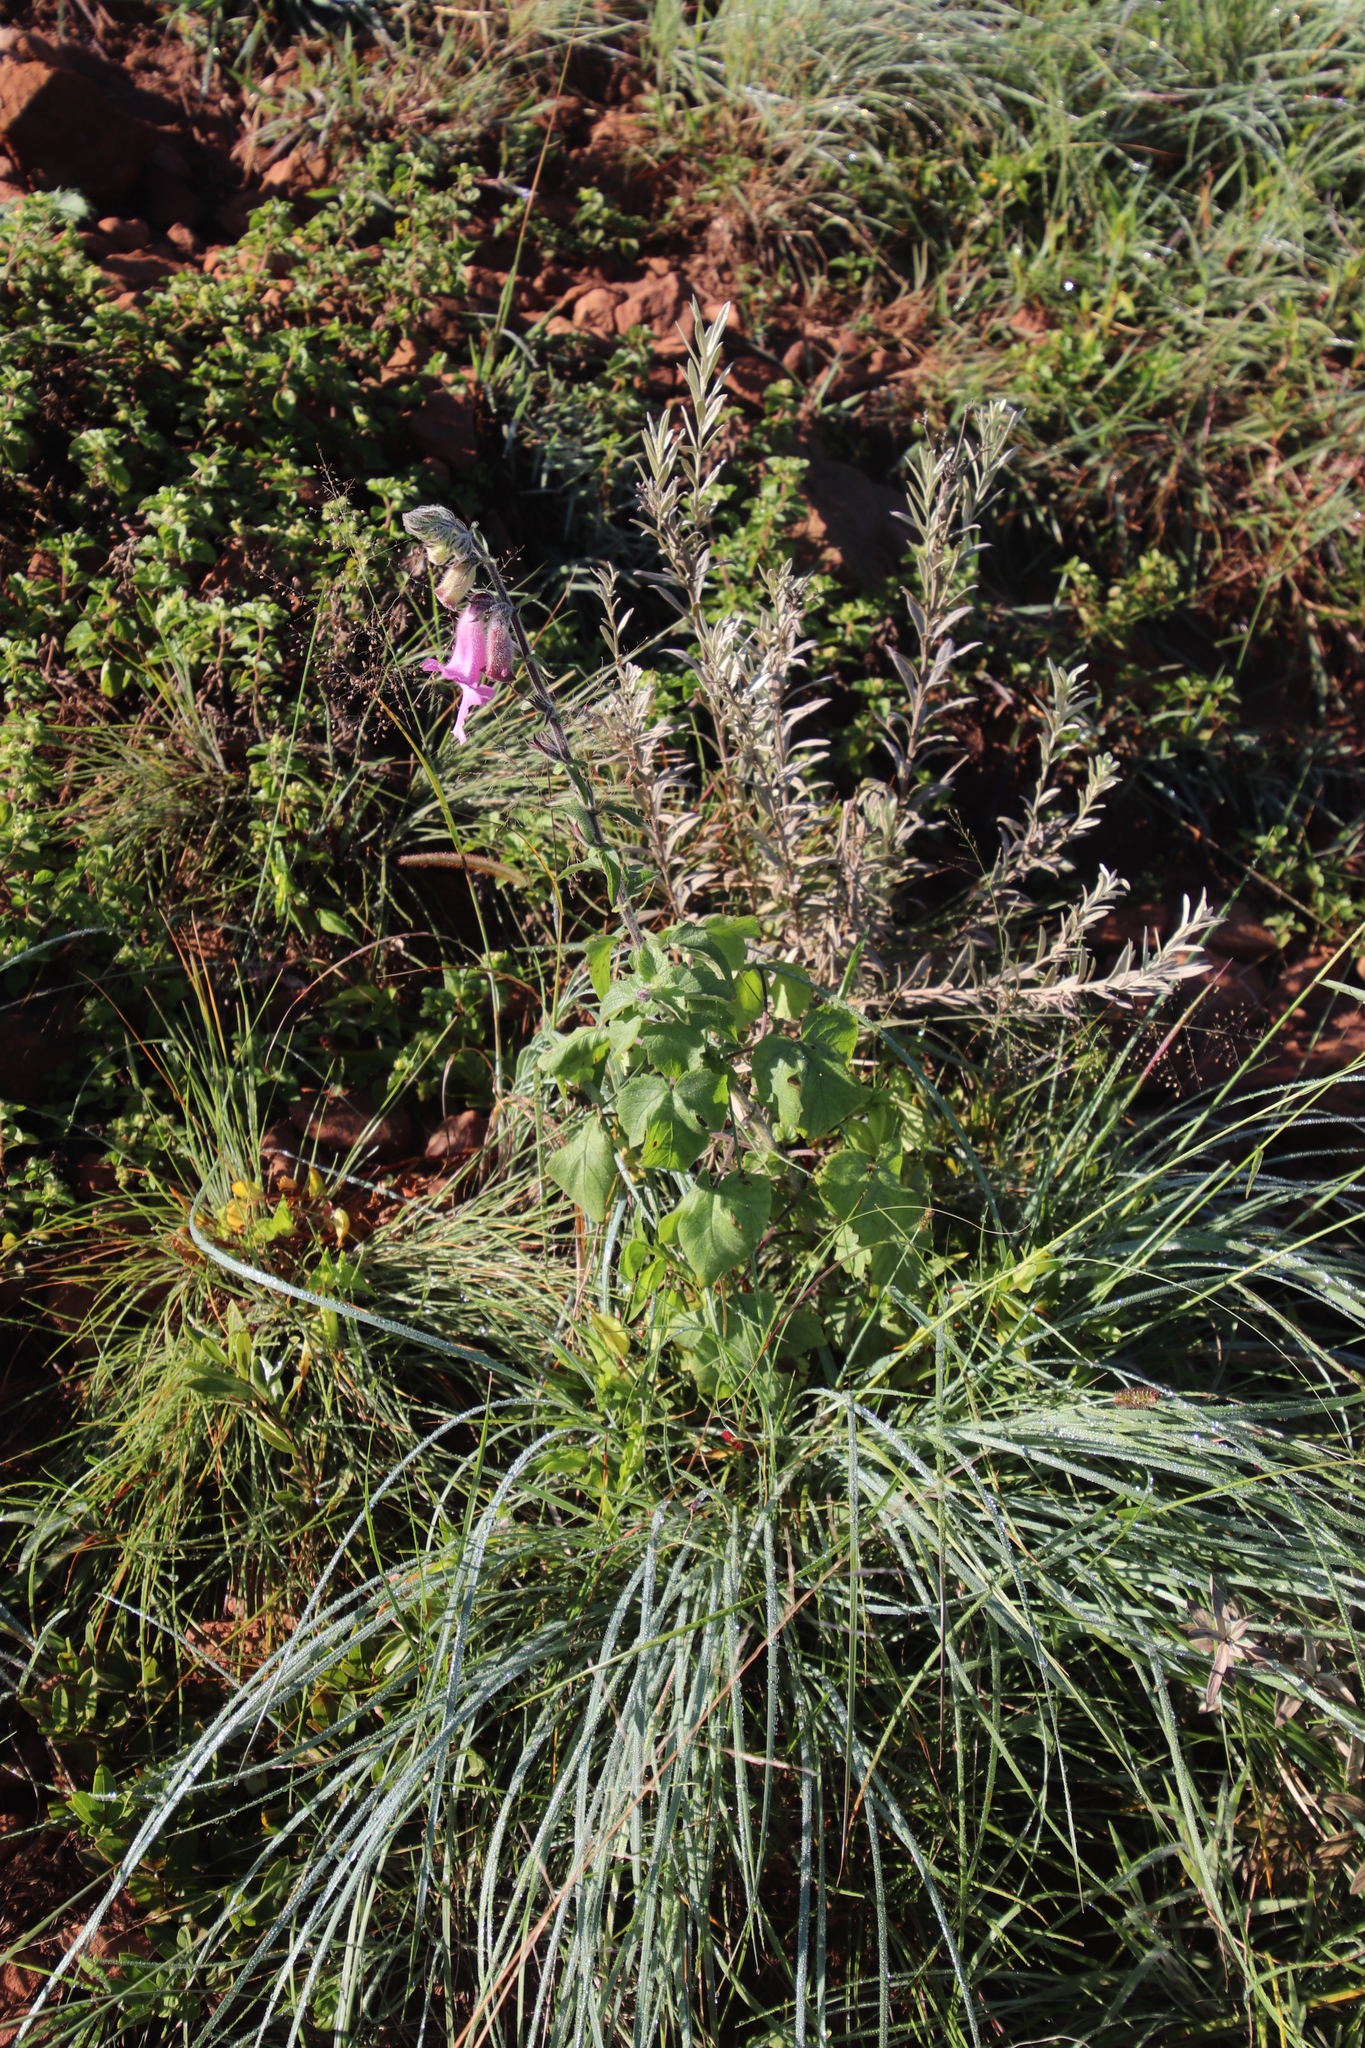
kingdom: Plantae
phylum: Tracheophyta
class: Magnoliopsida
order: Lamiales
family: Pedaliaceae
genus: Sesamum
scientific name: Sesamum trilobum
